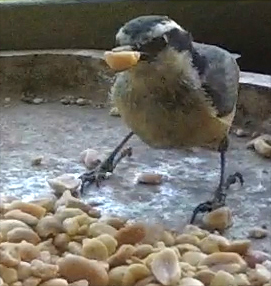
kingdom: Animalia
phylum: Chordata
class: Aves
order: Passeriformes
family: Sittidae
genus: Sitta
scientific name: Sitta canadensis
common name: Red-breasted nuthatch
